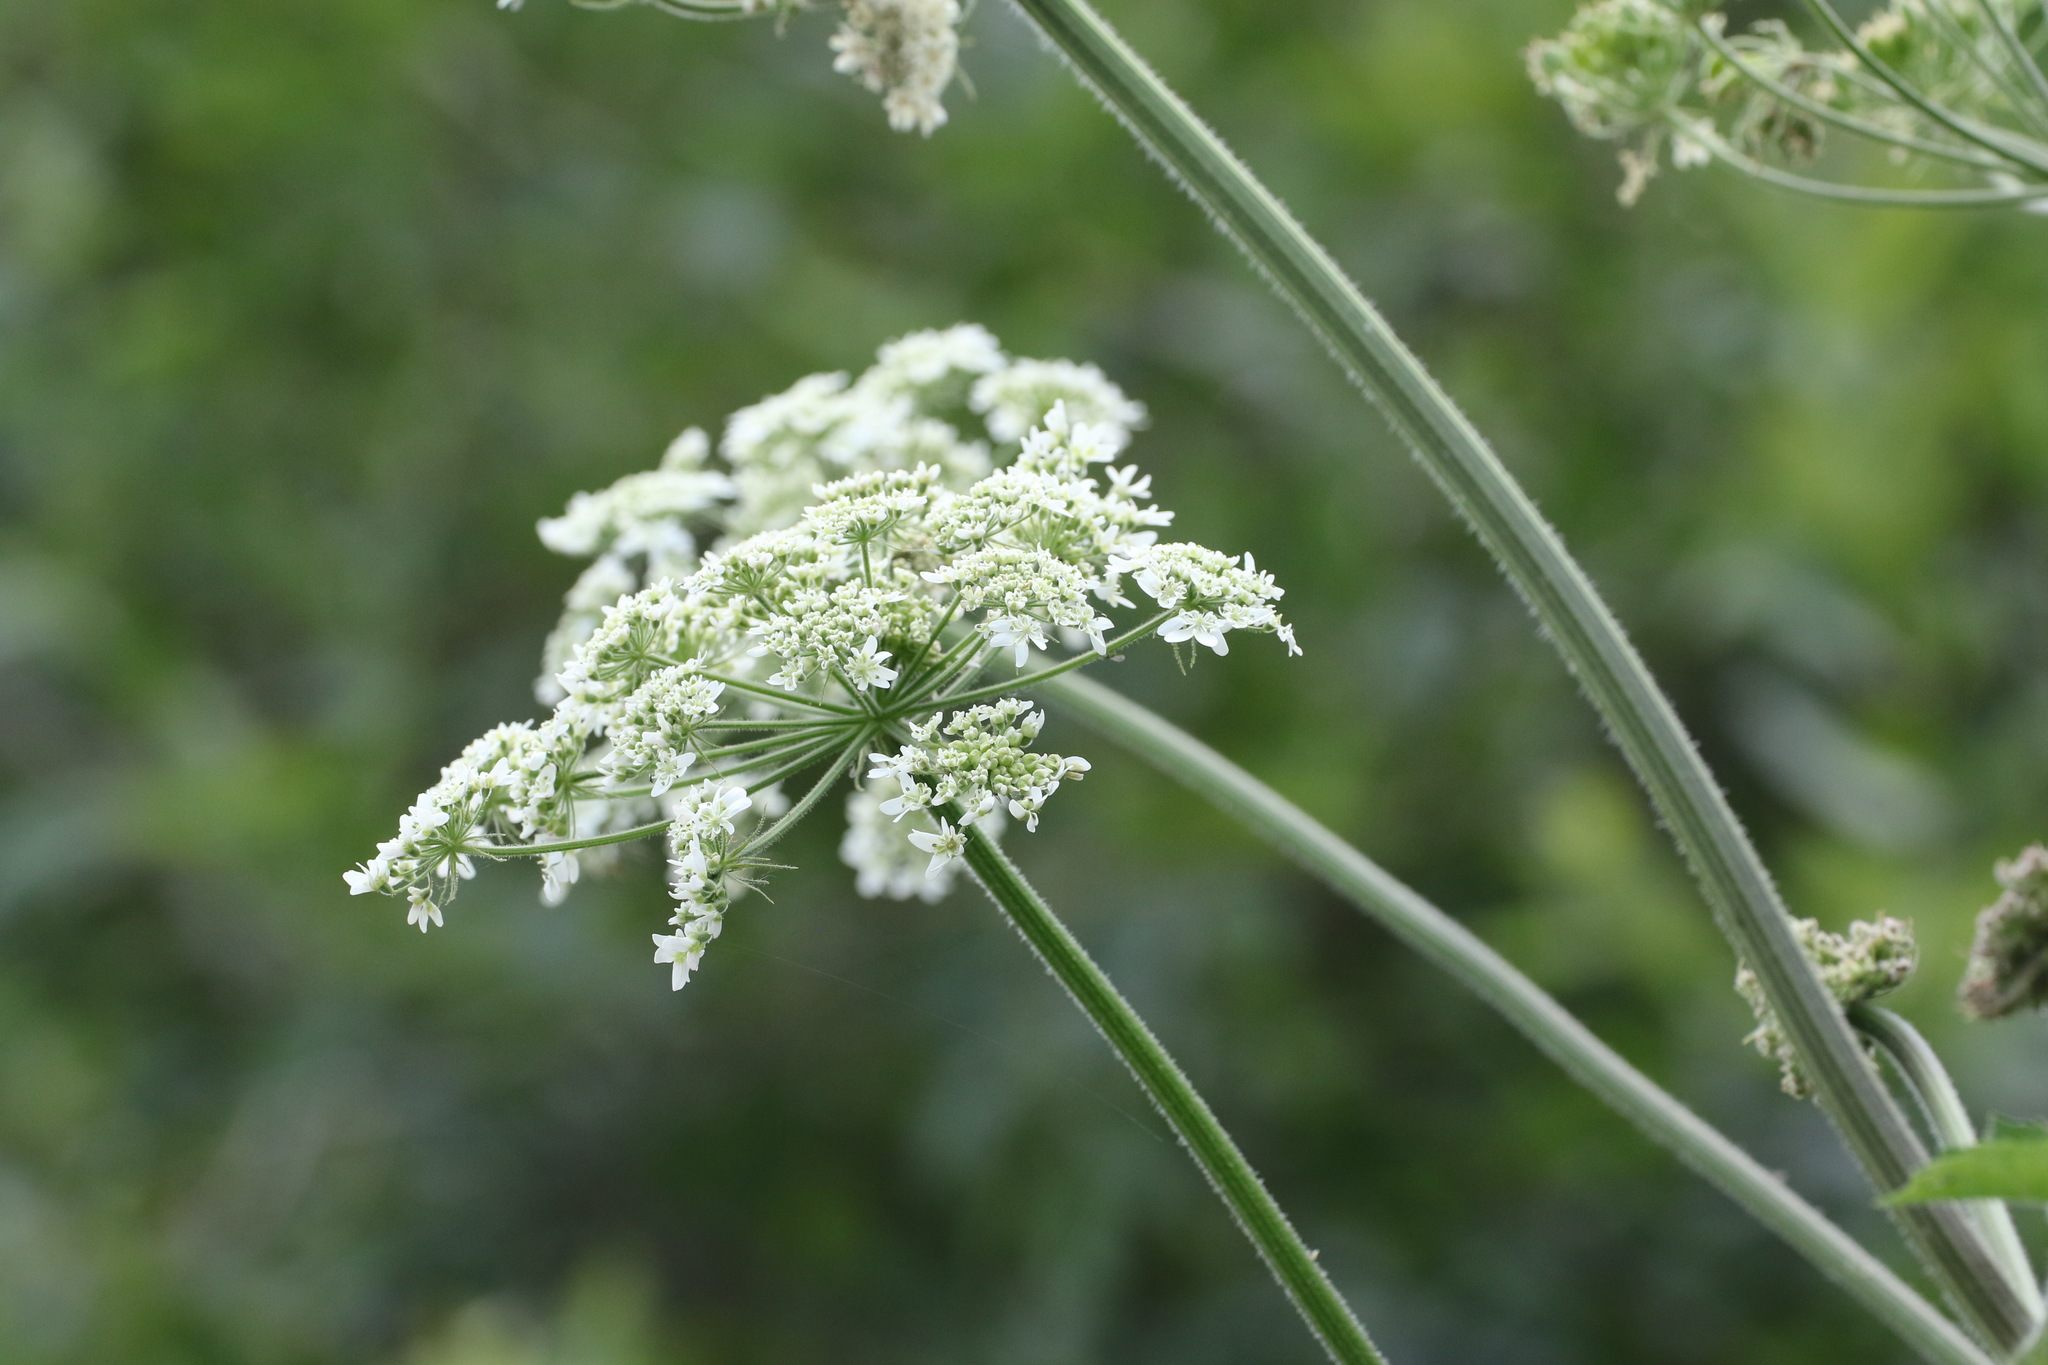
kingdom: Plantae
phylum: Tracheophyta
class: Magnoliopsida
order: Apiales
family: Apiaceae
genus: Heracleum
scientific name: Heracleum sphondylium
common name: Hogweed
